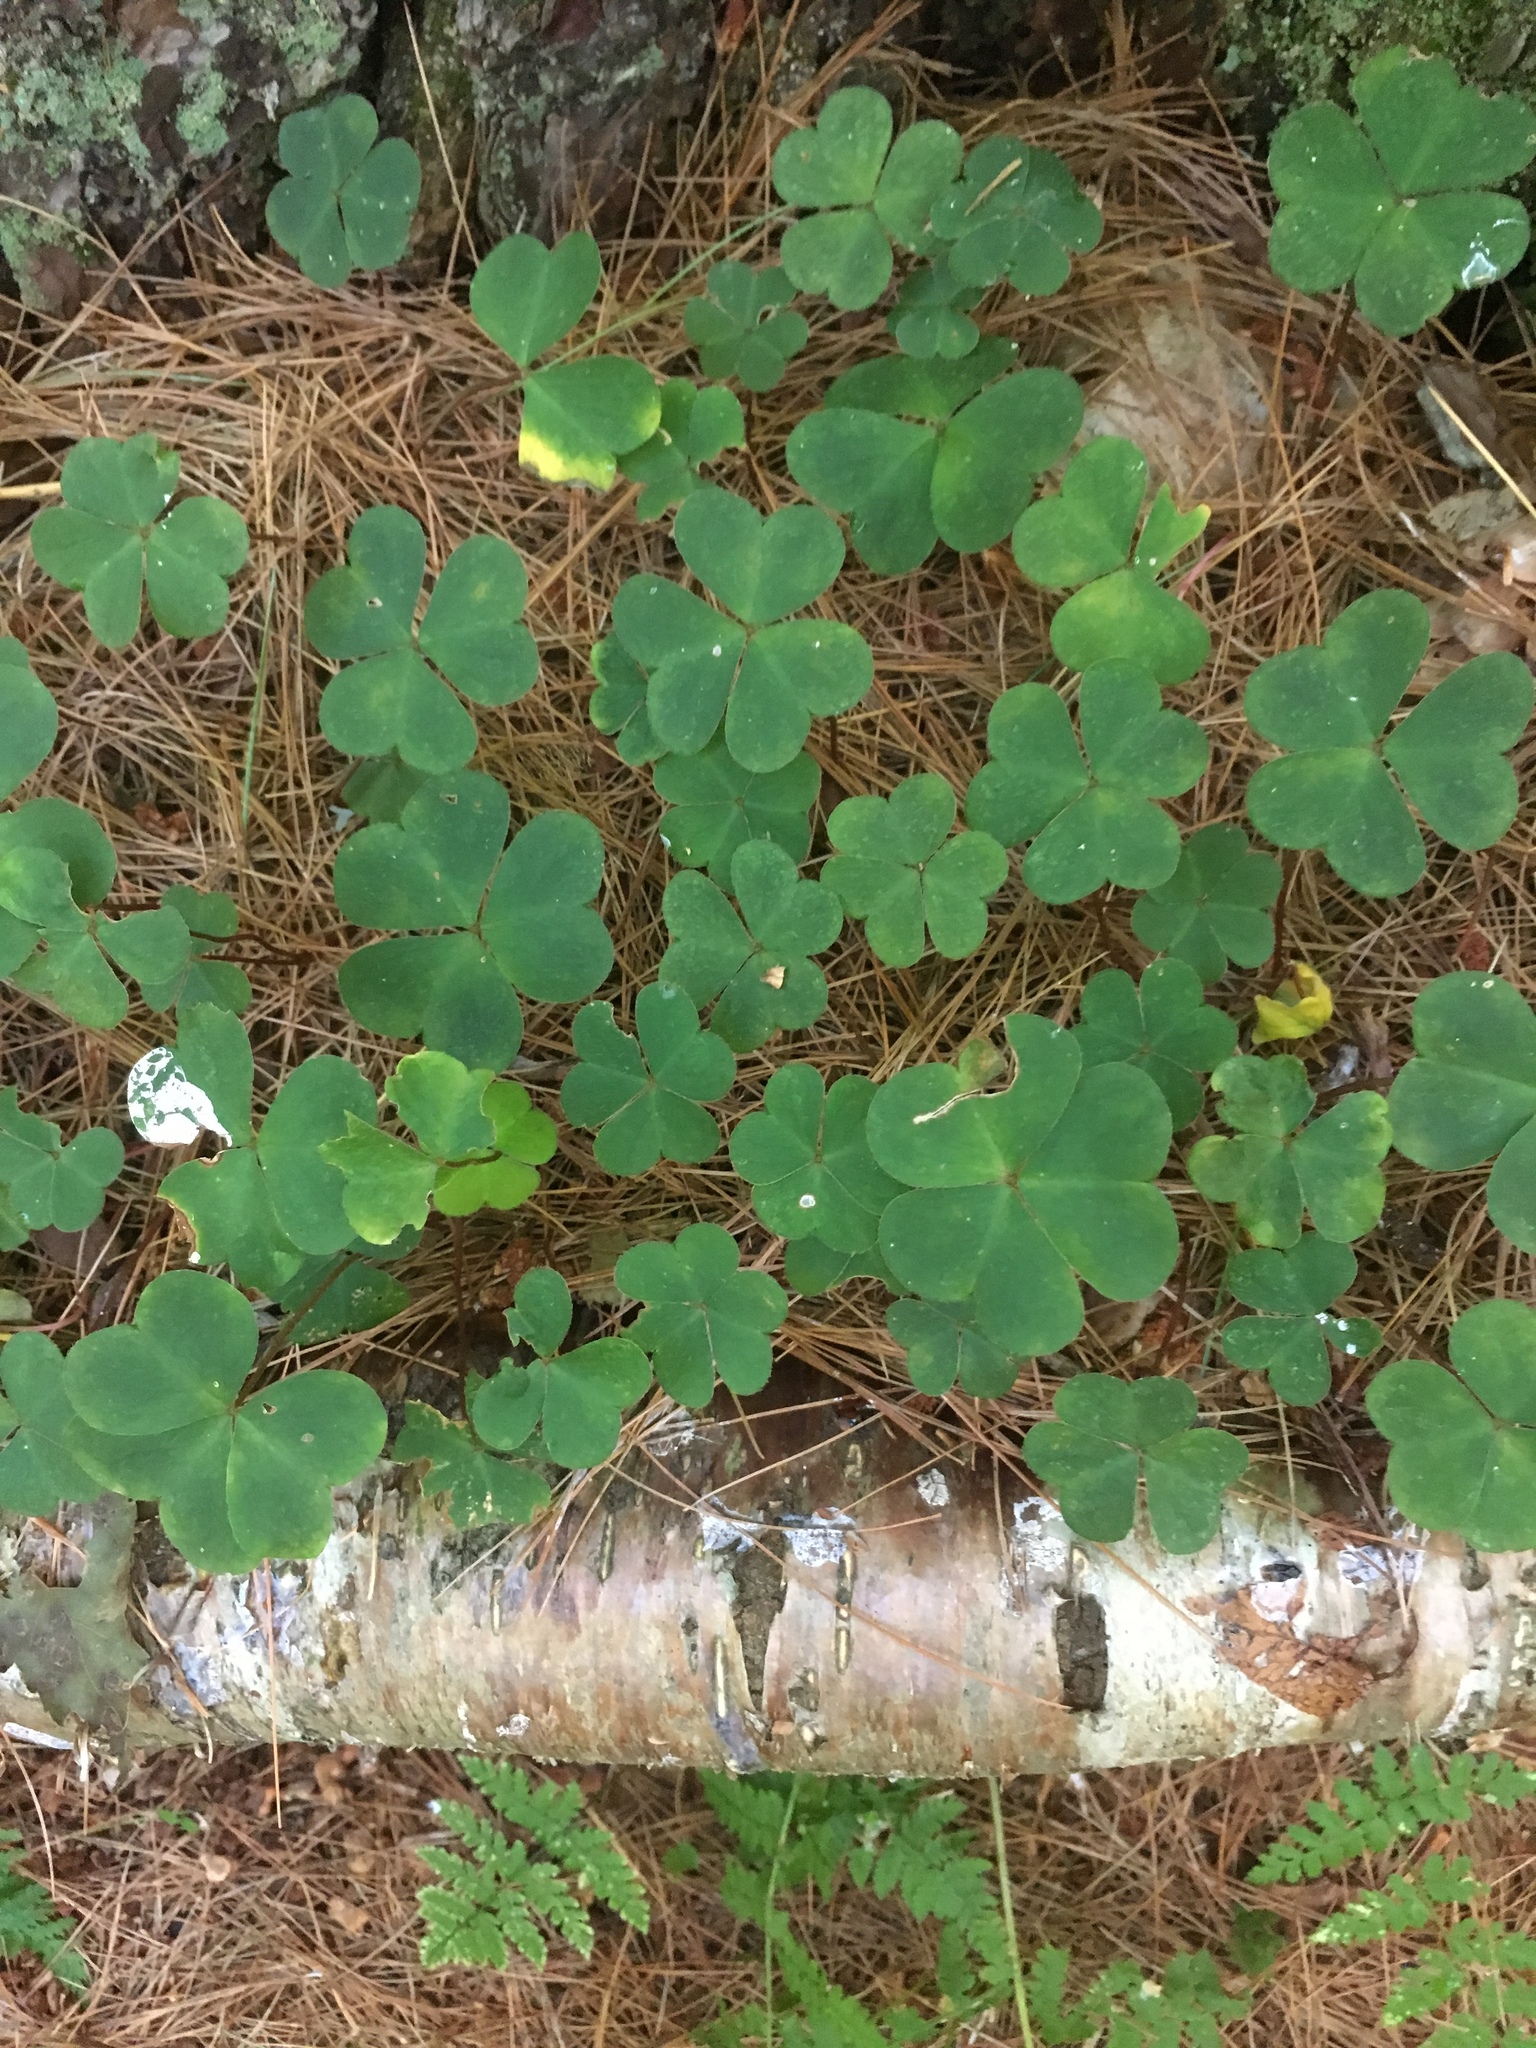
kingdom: Plantae
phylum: Tracheophyta
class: Magnoliopsida
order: Oxalidales
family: Oxalidaceae
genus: Oxalis
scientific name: Oxalis montana
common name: American wood-sorrel
